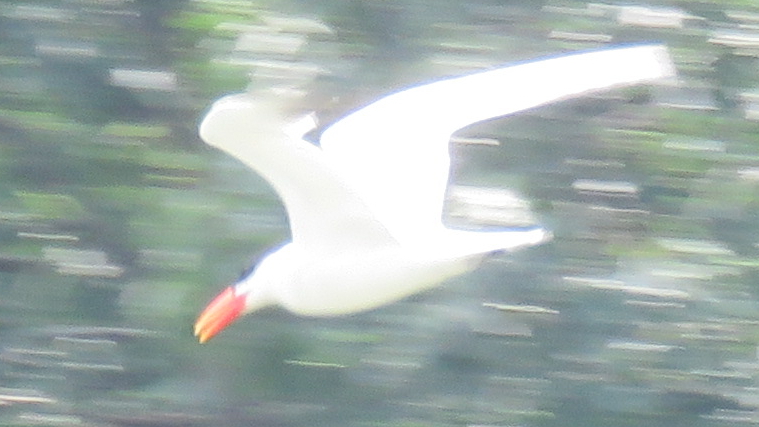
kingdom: Animalia
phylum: Chordata
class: Aves
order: Charadriiformes
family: Laridae
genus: Hydroprogne
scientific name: Hydroprogne caspia
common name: Caspian tern
